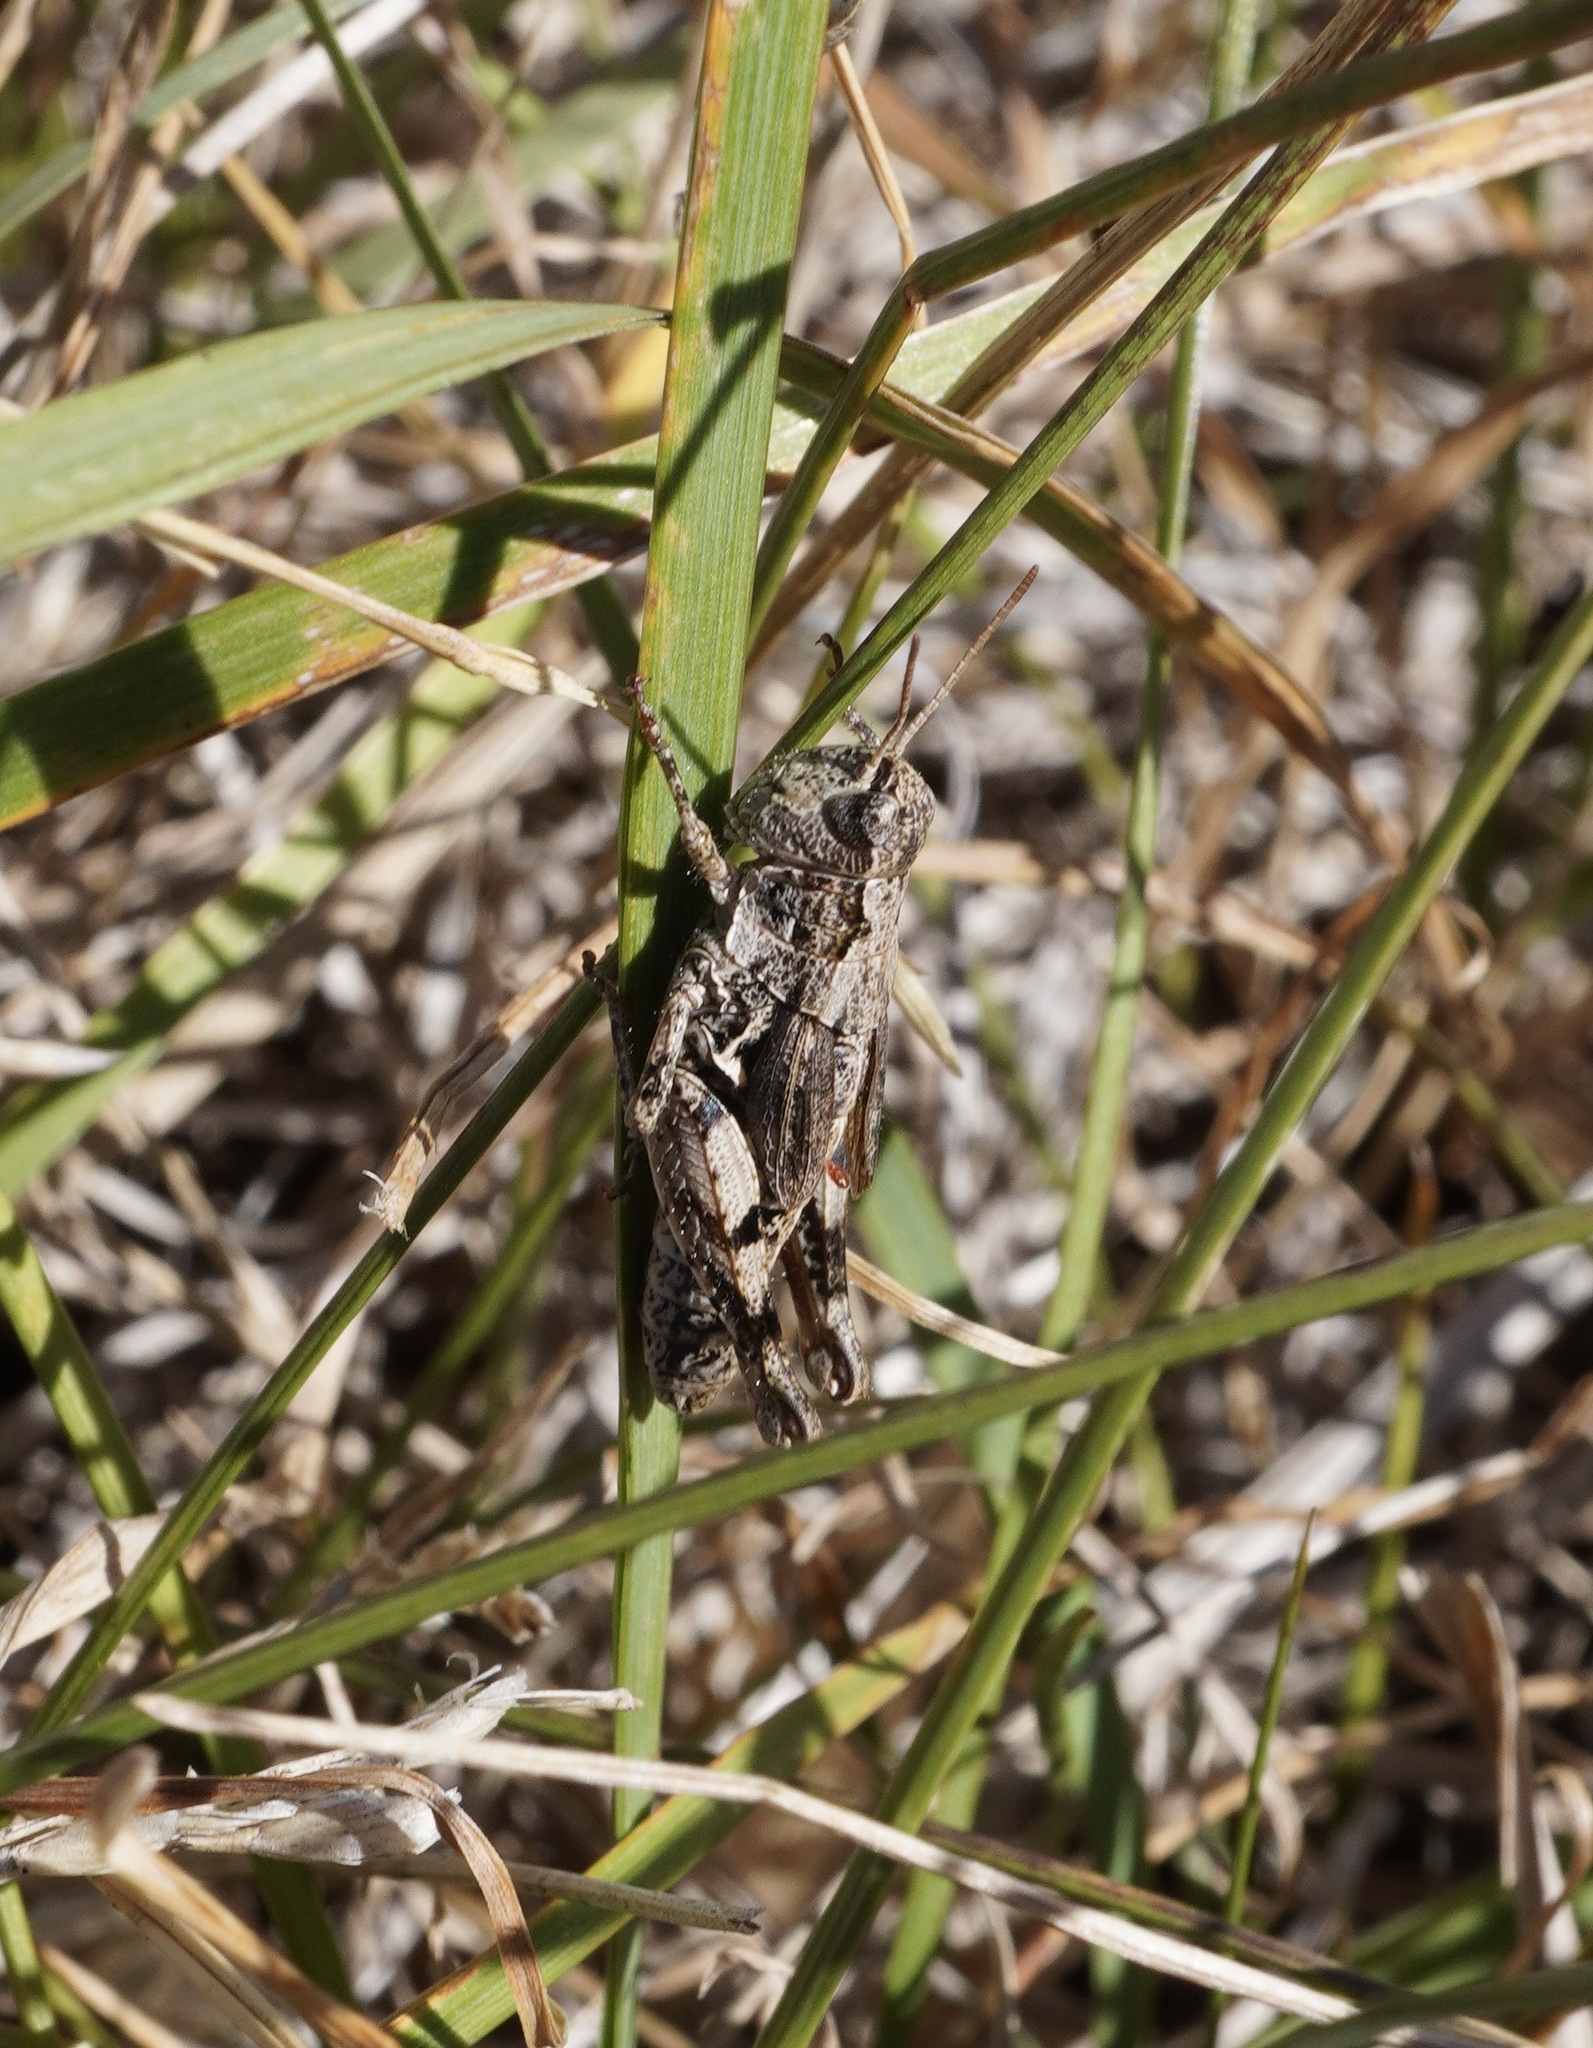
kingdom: Animalia
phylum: Arthropoda
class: Insecta
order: Orthoptera
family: Acrididae
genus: Phaulacridium
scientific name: Phaulacridium marginale
